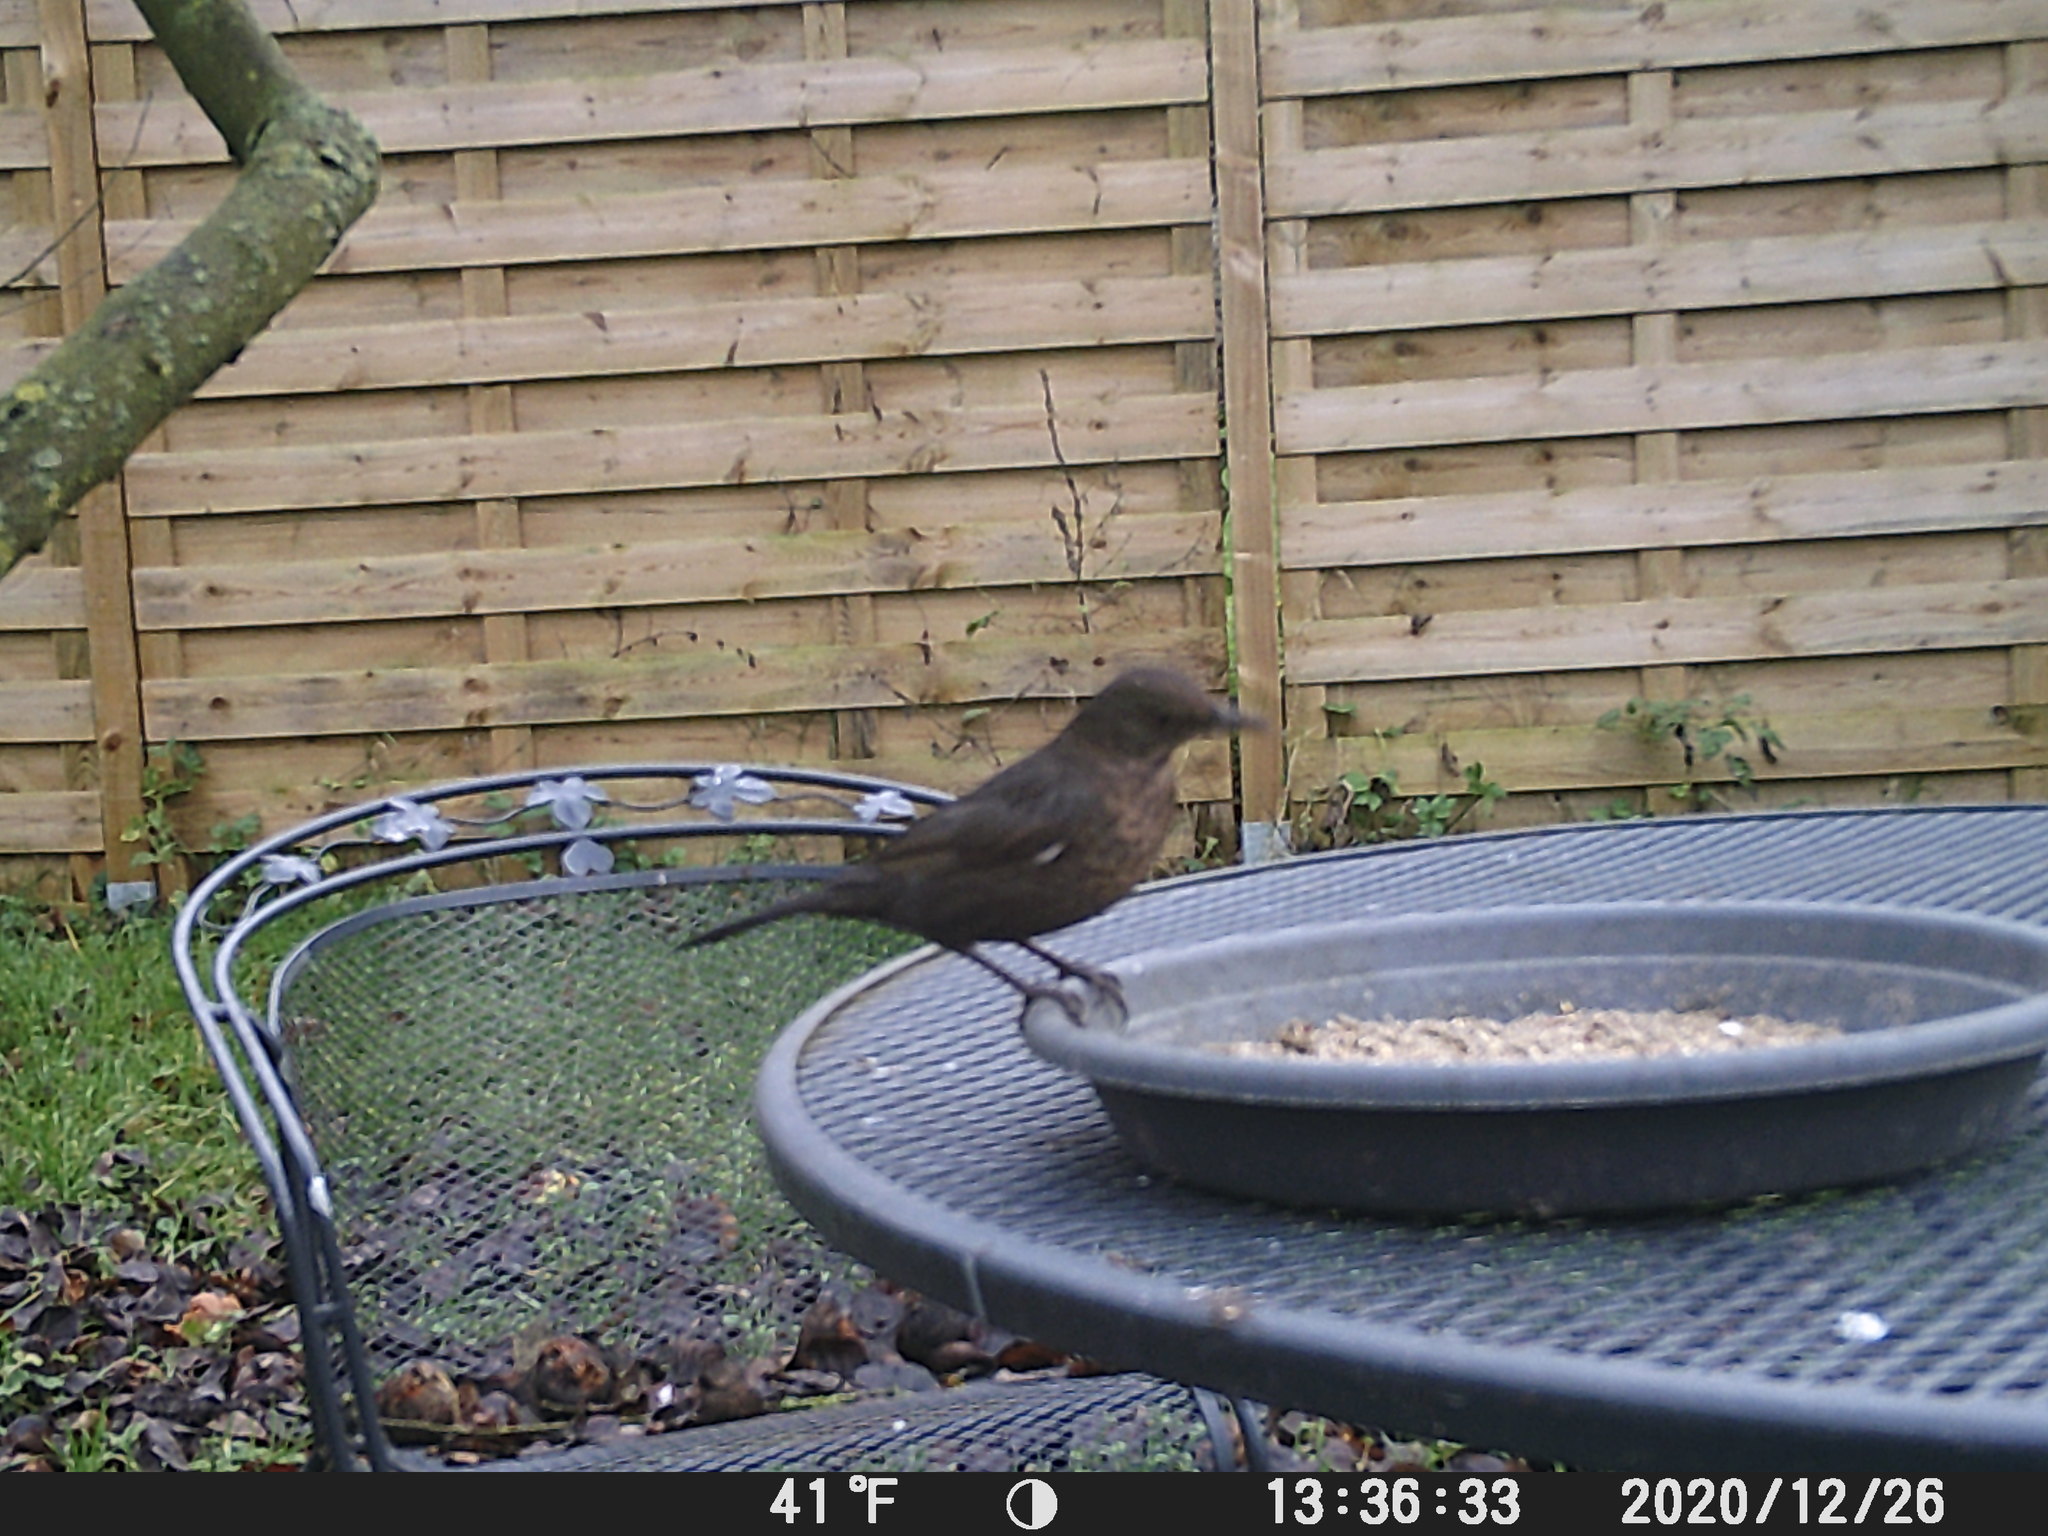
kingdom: Animalia
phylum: Chordata
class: Aves
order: Passeriformes
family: Turdidae
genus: Turdus
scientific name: Turdus merula
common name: Common blackbird
